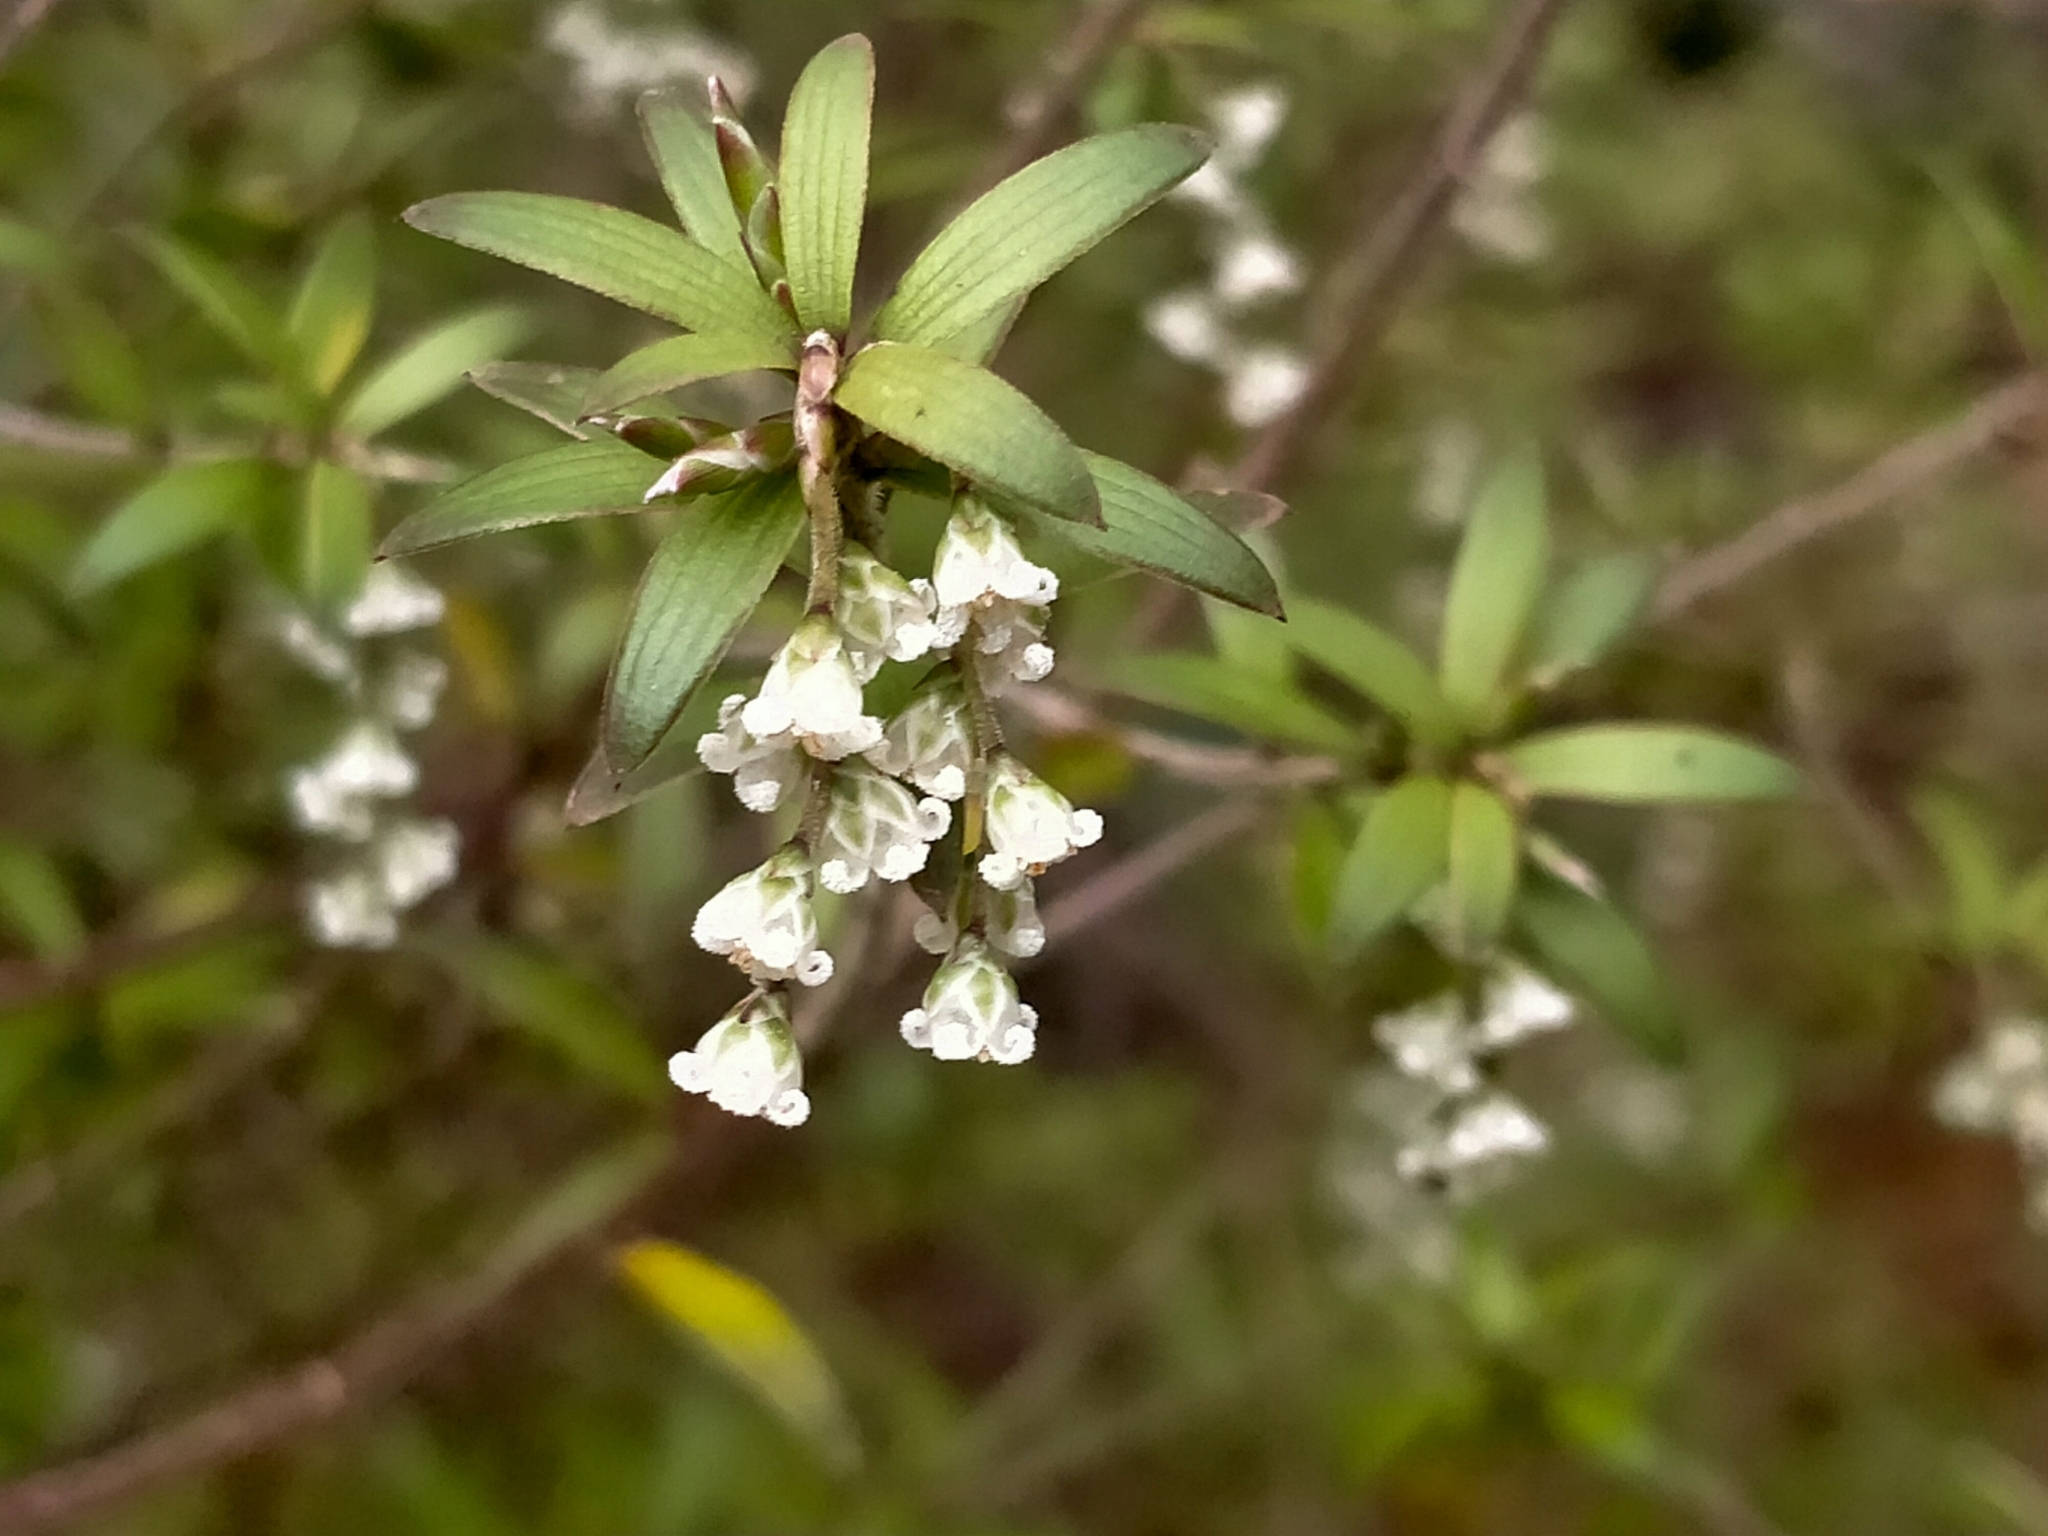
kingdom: Plantae
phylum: Tracheophyta
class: Magnoliopsida
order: Ericales
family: Ericaceae
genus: Leucopogon
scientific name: Leucopogon fasciculatus
